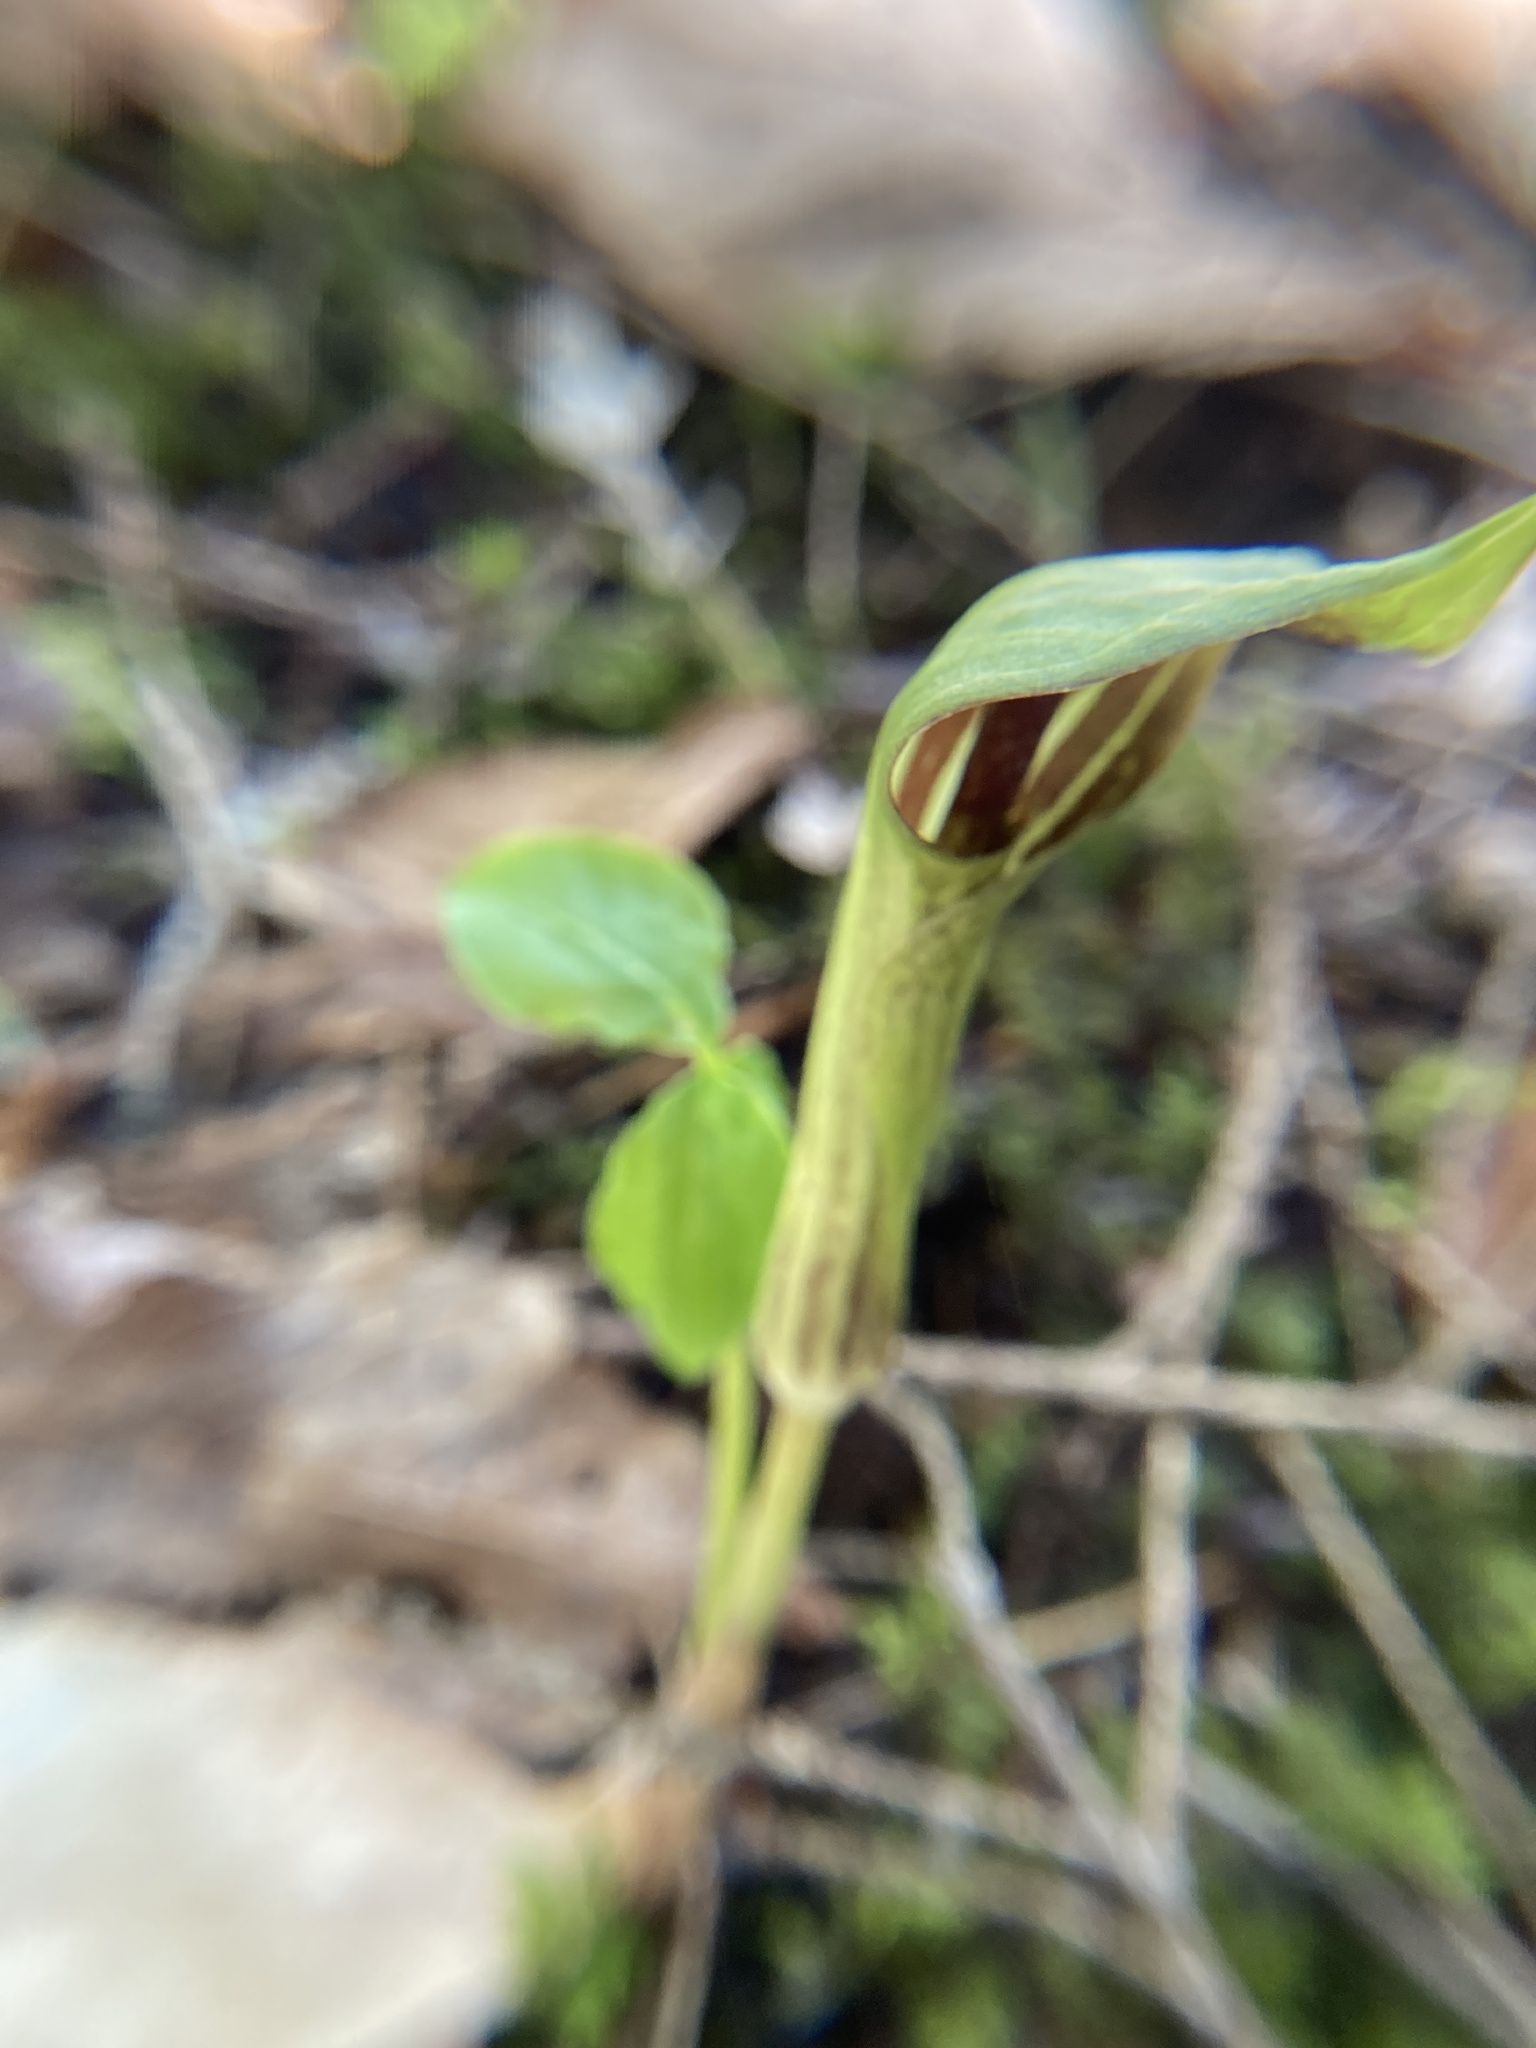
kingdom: Plantae
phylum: Tracheophyta
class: Liliopsida
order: Alismatales
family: Araceae
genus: Arisaema
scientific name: Arisaema triphyllum
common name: Jack-in-the-pulpit
